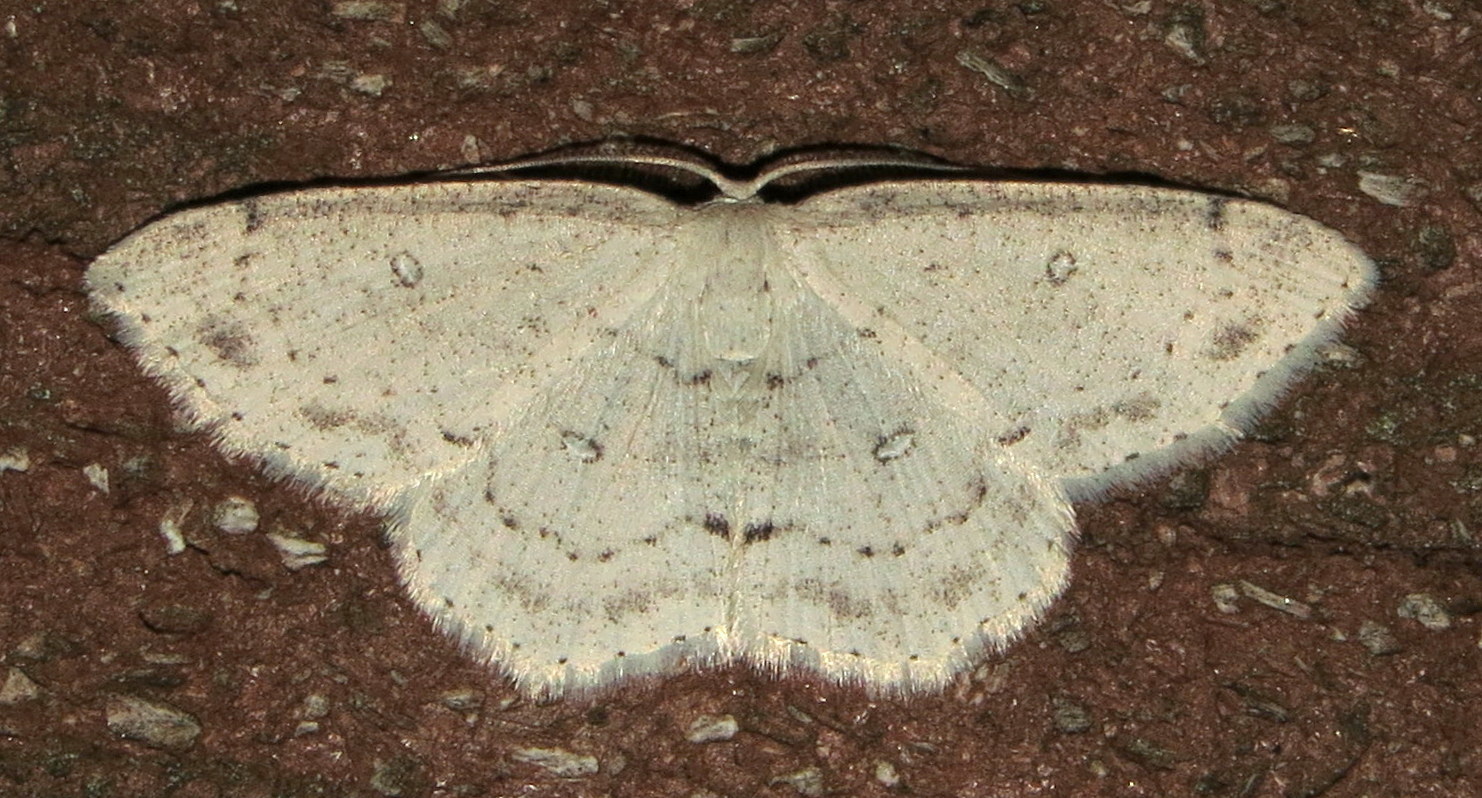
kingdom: Animalia
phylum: Arthropoda
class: Insecta
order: Lepidoptera
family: Geometridae
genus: Cyclophora
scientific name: Cyclophora pendulinaria
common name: Sweet fern geometer
